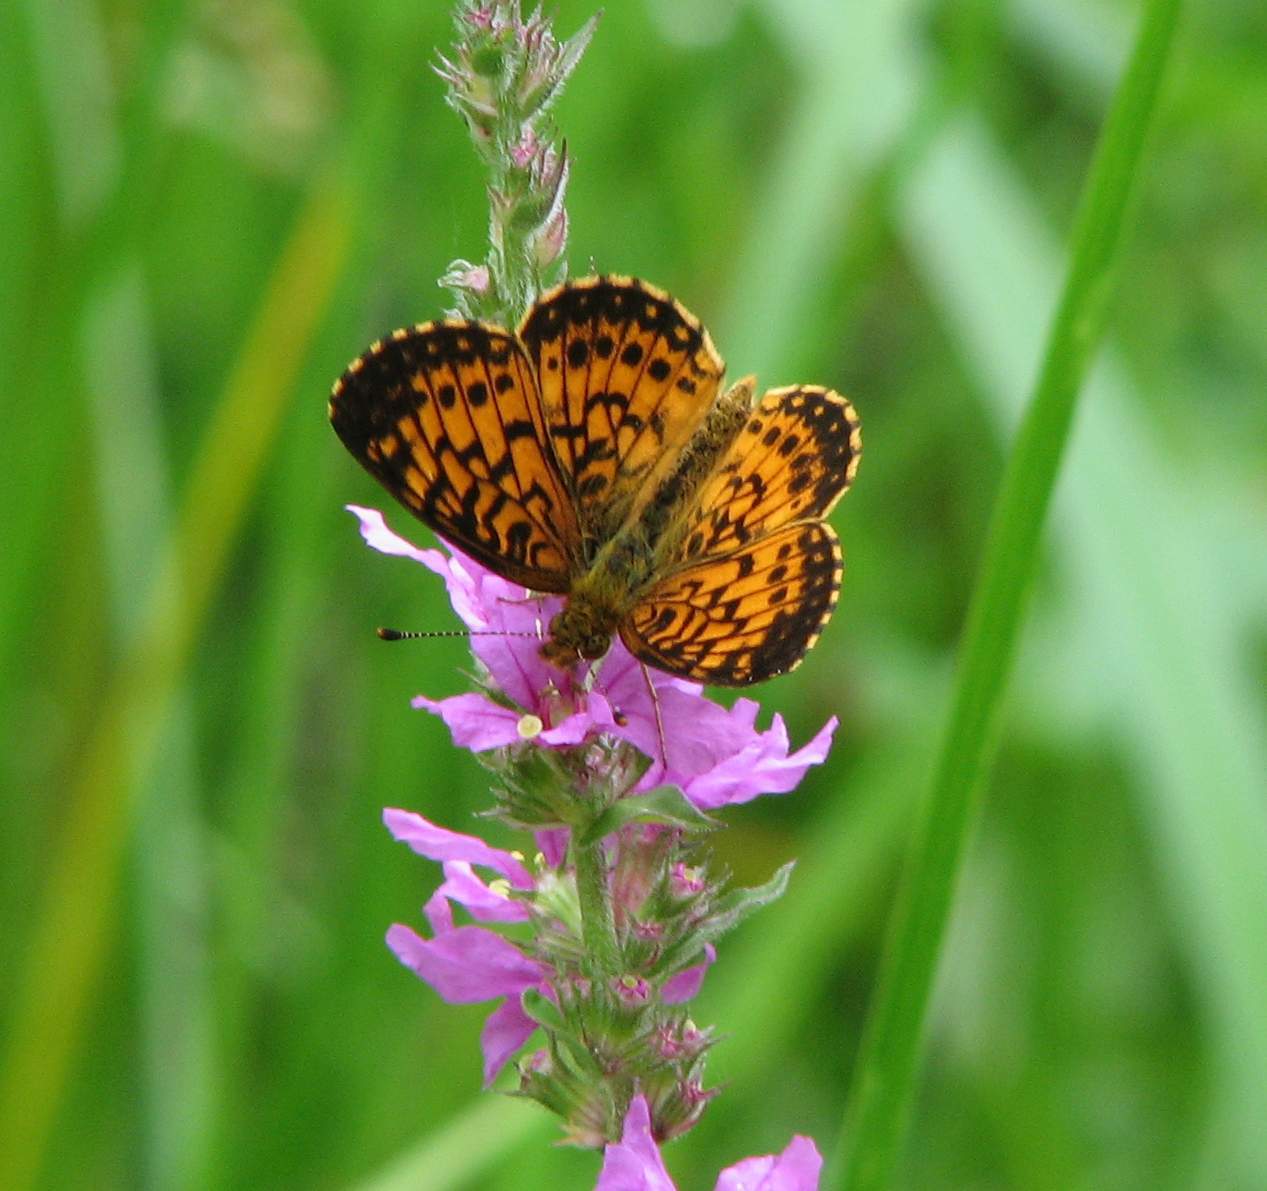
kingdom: Animalia
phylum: Arthropoda
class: Insecta
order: Lepidoptera
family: Nymphalidae
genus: Boloria
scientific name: Boloria
